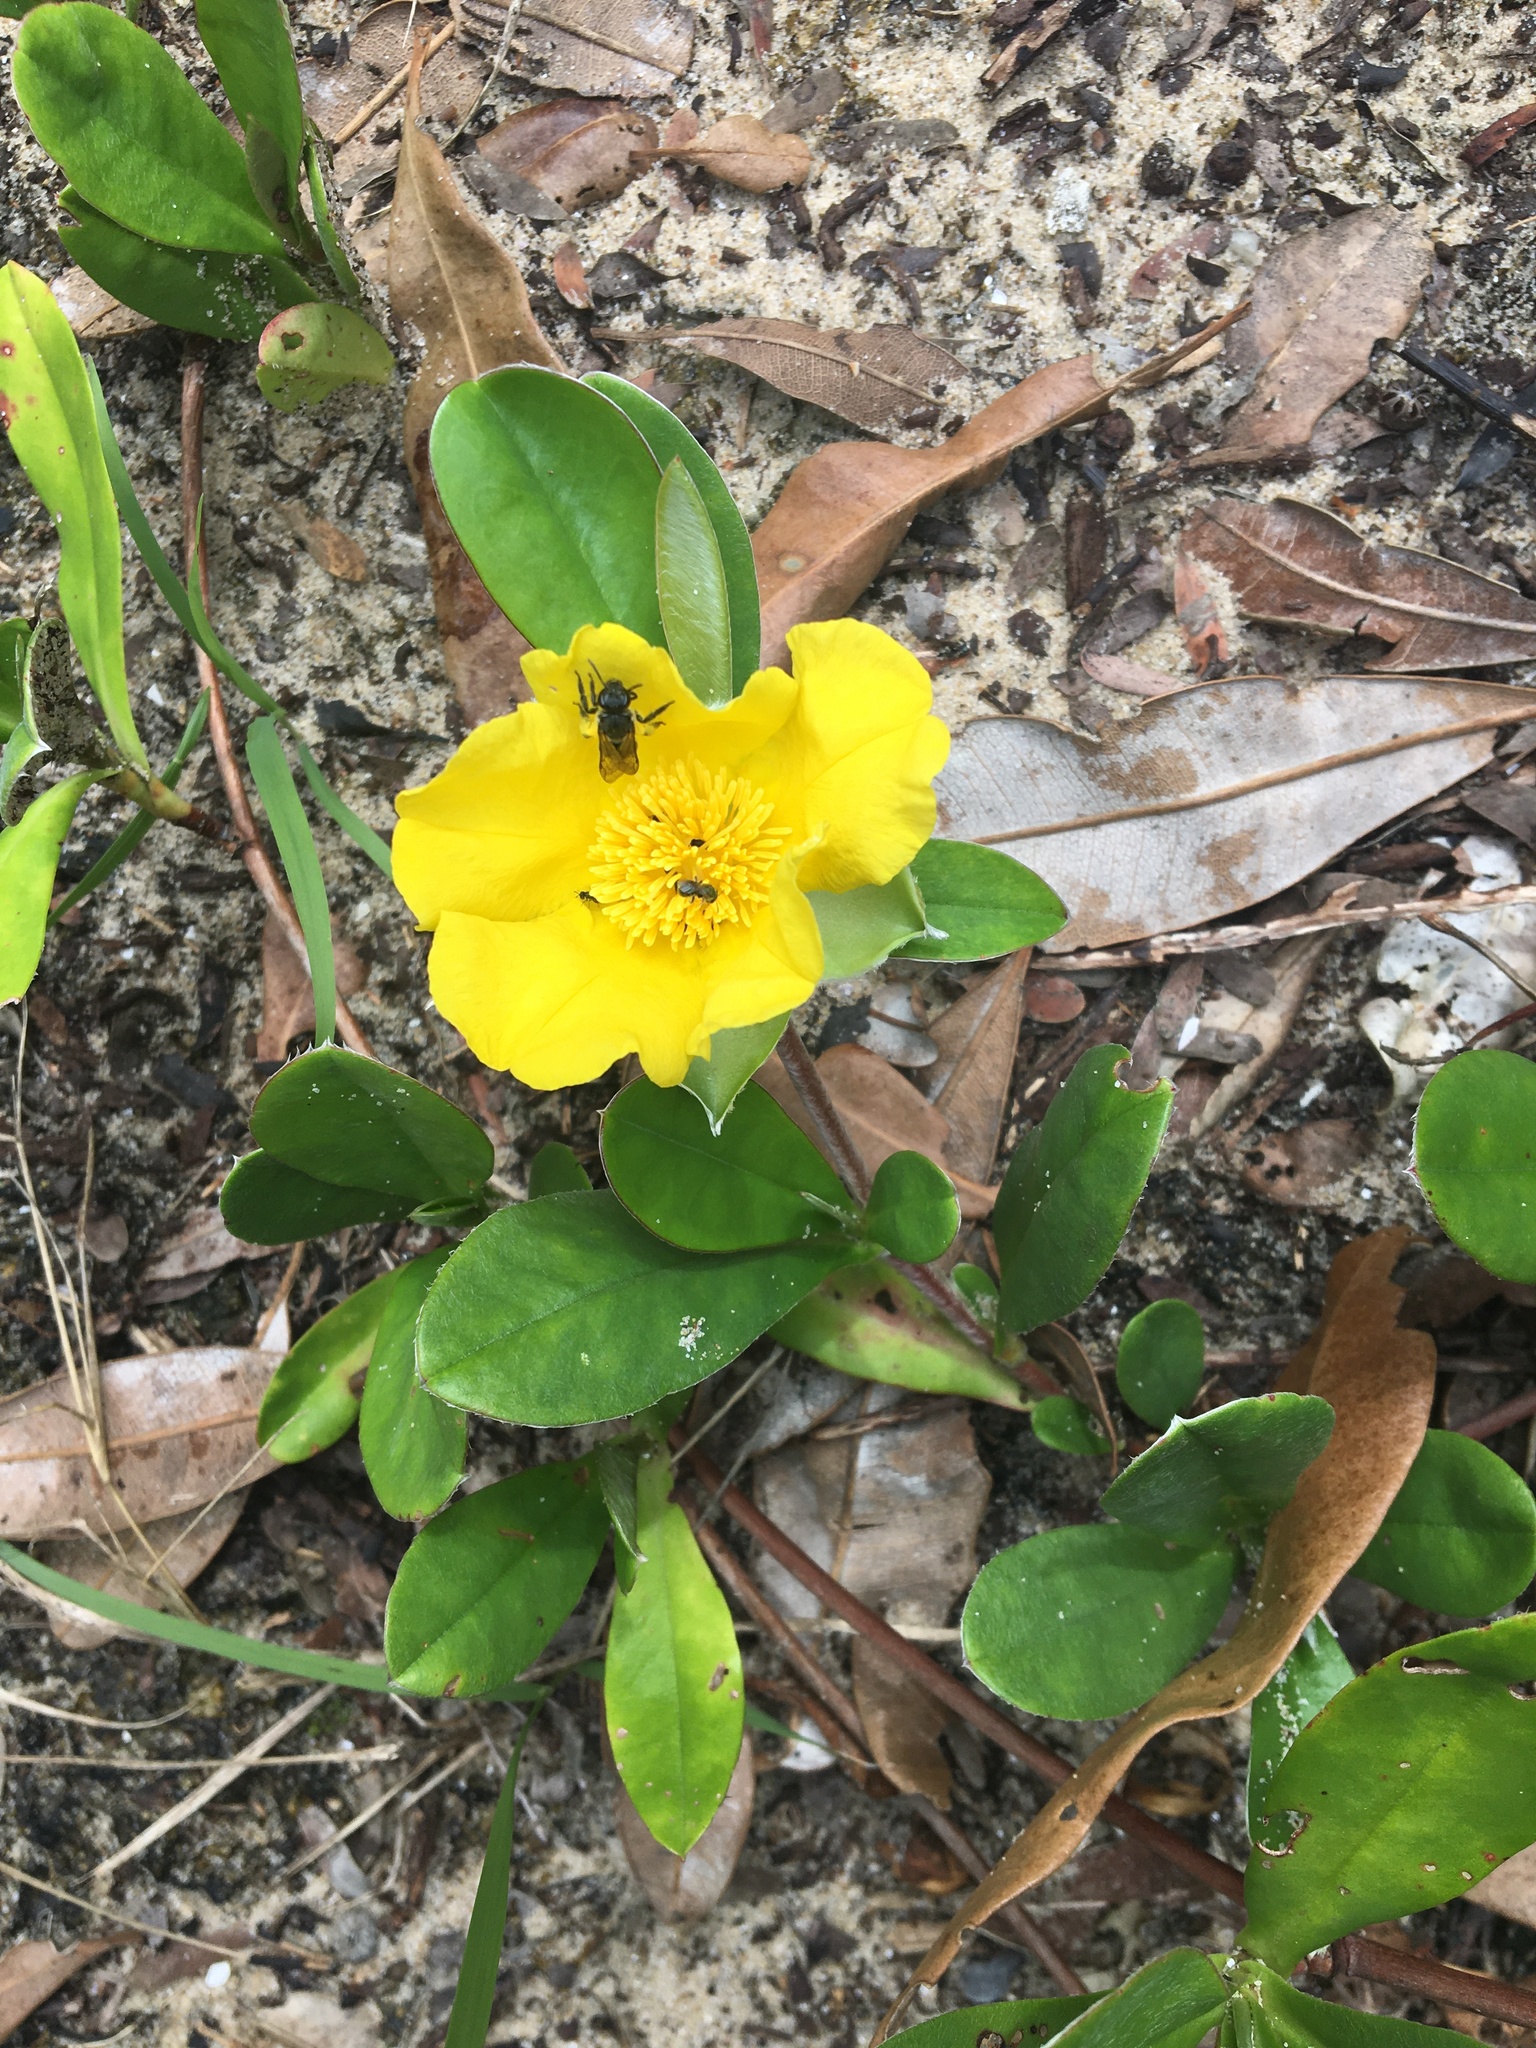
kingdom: Plantae
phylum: Tracheophyta
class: Magnoliopsida
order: Dilleniales
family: Dilleniaceae
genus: Hibbertia
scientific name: Hibbertia scandens
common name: Climbing guinea-flower
